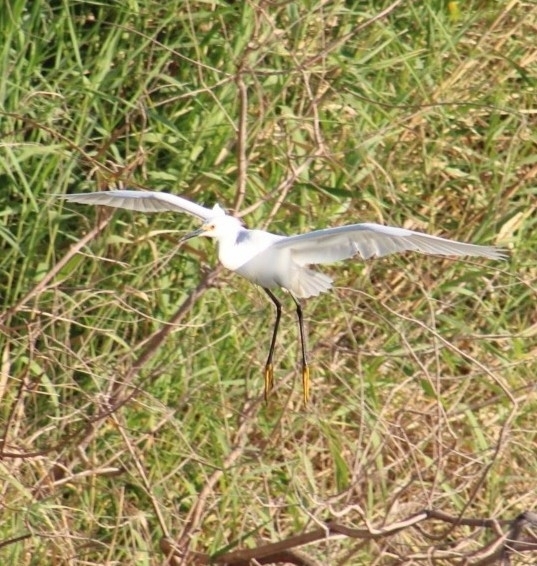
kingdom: Animalia
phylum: Chordata
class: Aves
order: Pelecaniformes
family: Ardeidae
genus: Egretta
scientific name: Egretta thula
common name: Snowy egret
